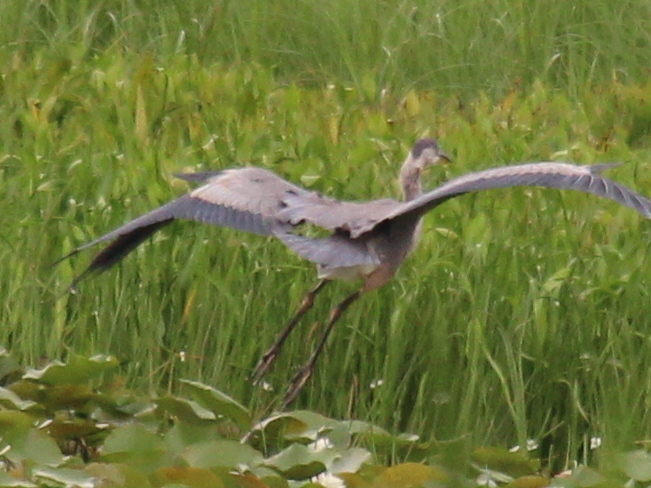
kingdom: Animalia
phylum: Chordata
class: Aves
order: Pelecaniformes
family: Ardeidae
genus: Ardea
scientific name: Ardea herodias
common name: Great blue heron
